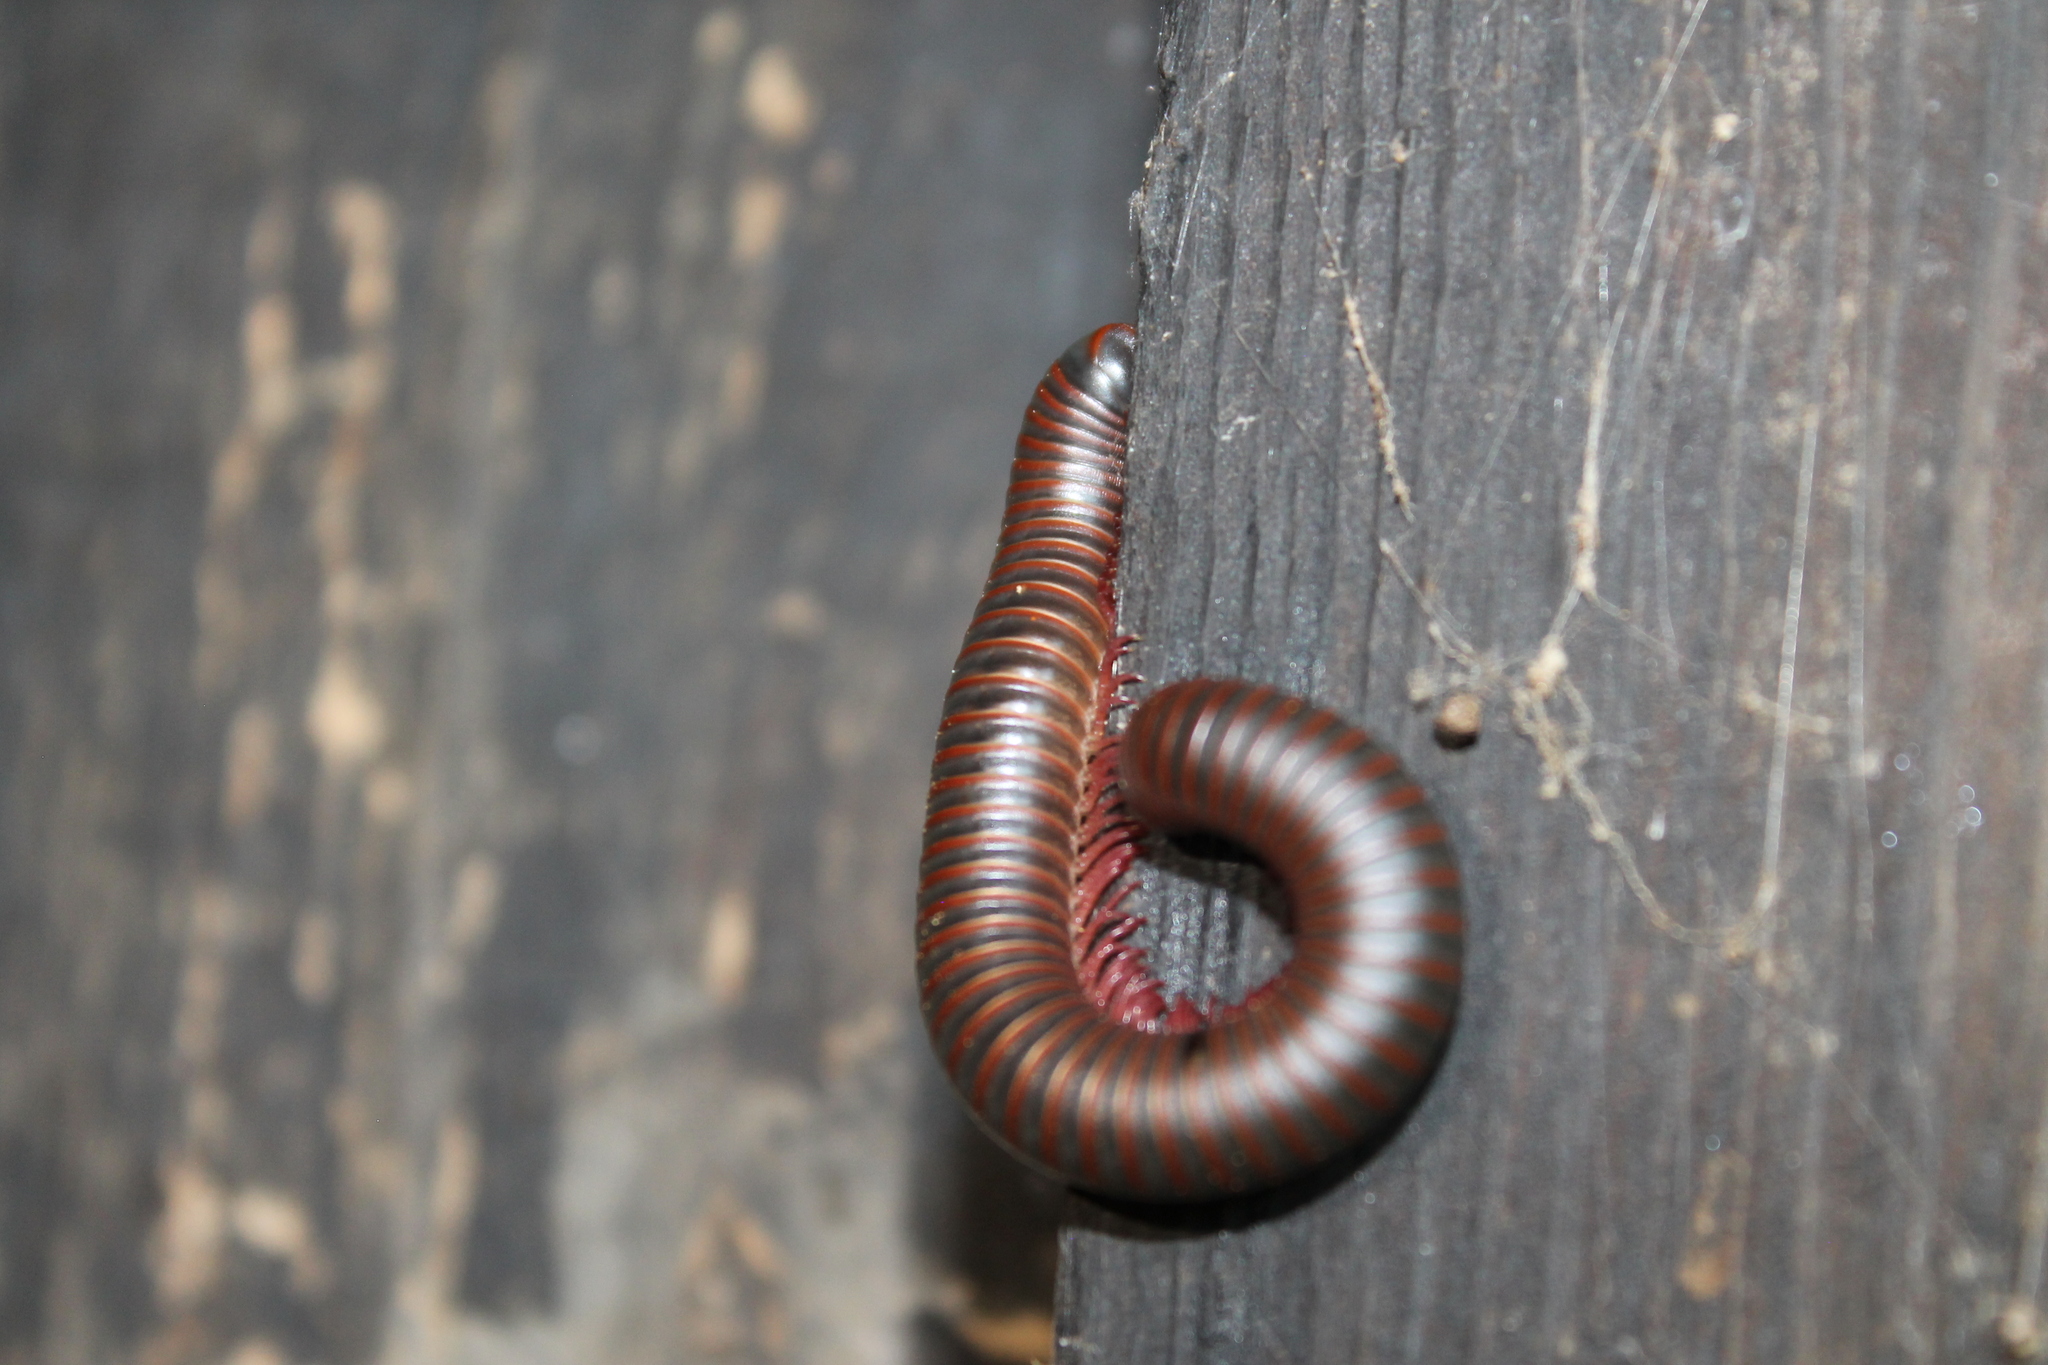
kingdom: Animalia
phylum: Arthropoda
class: Diplopoda
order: Spirobolida
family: Spirobolidae
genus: Narceus
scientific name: Narceus
